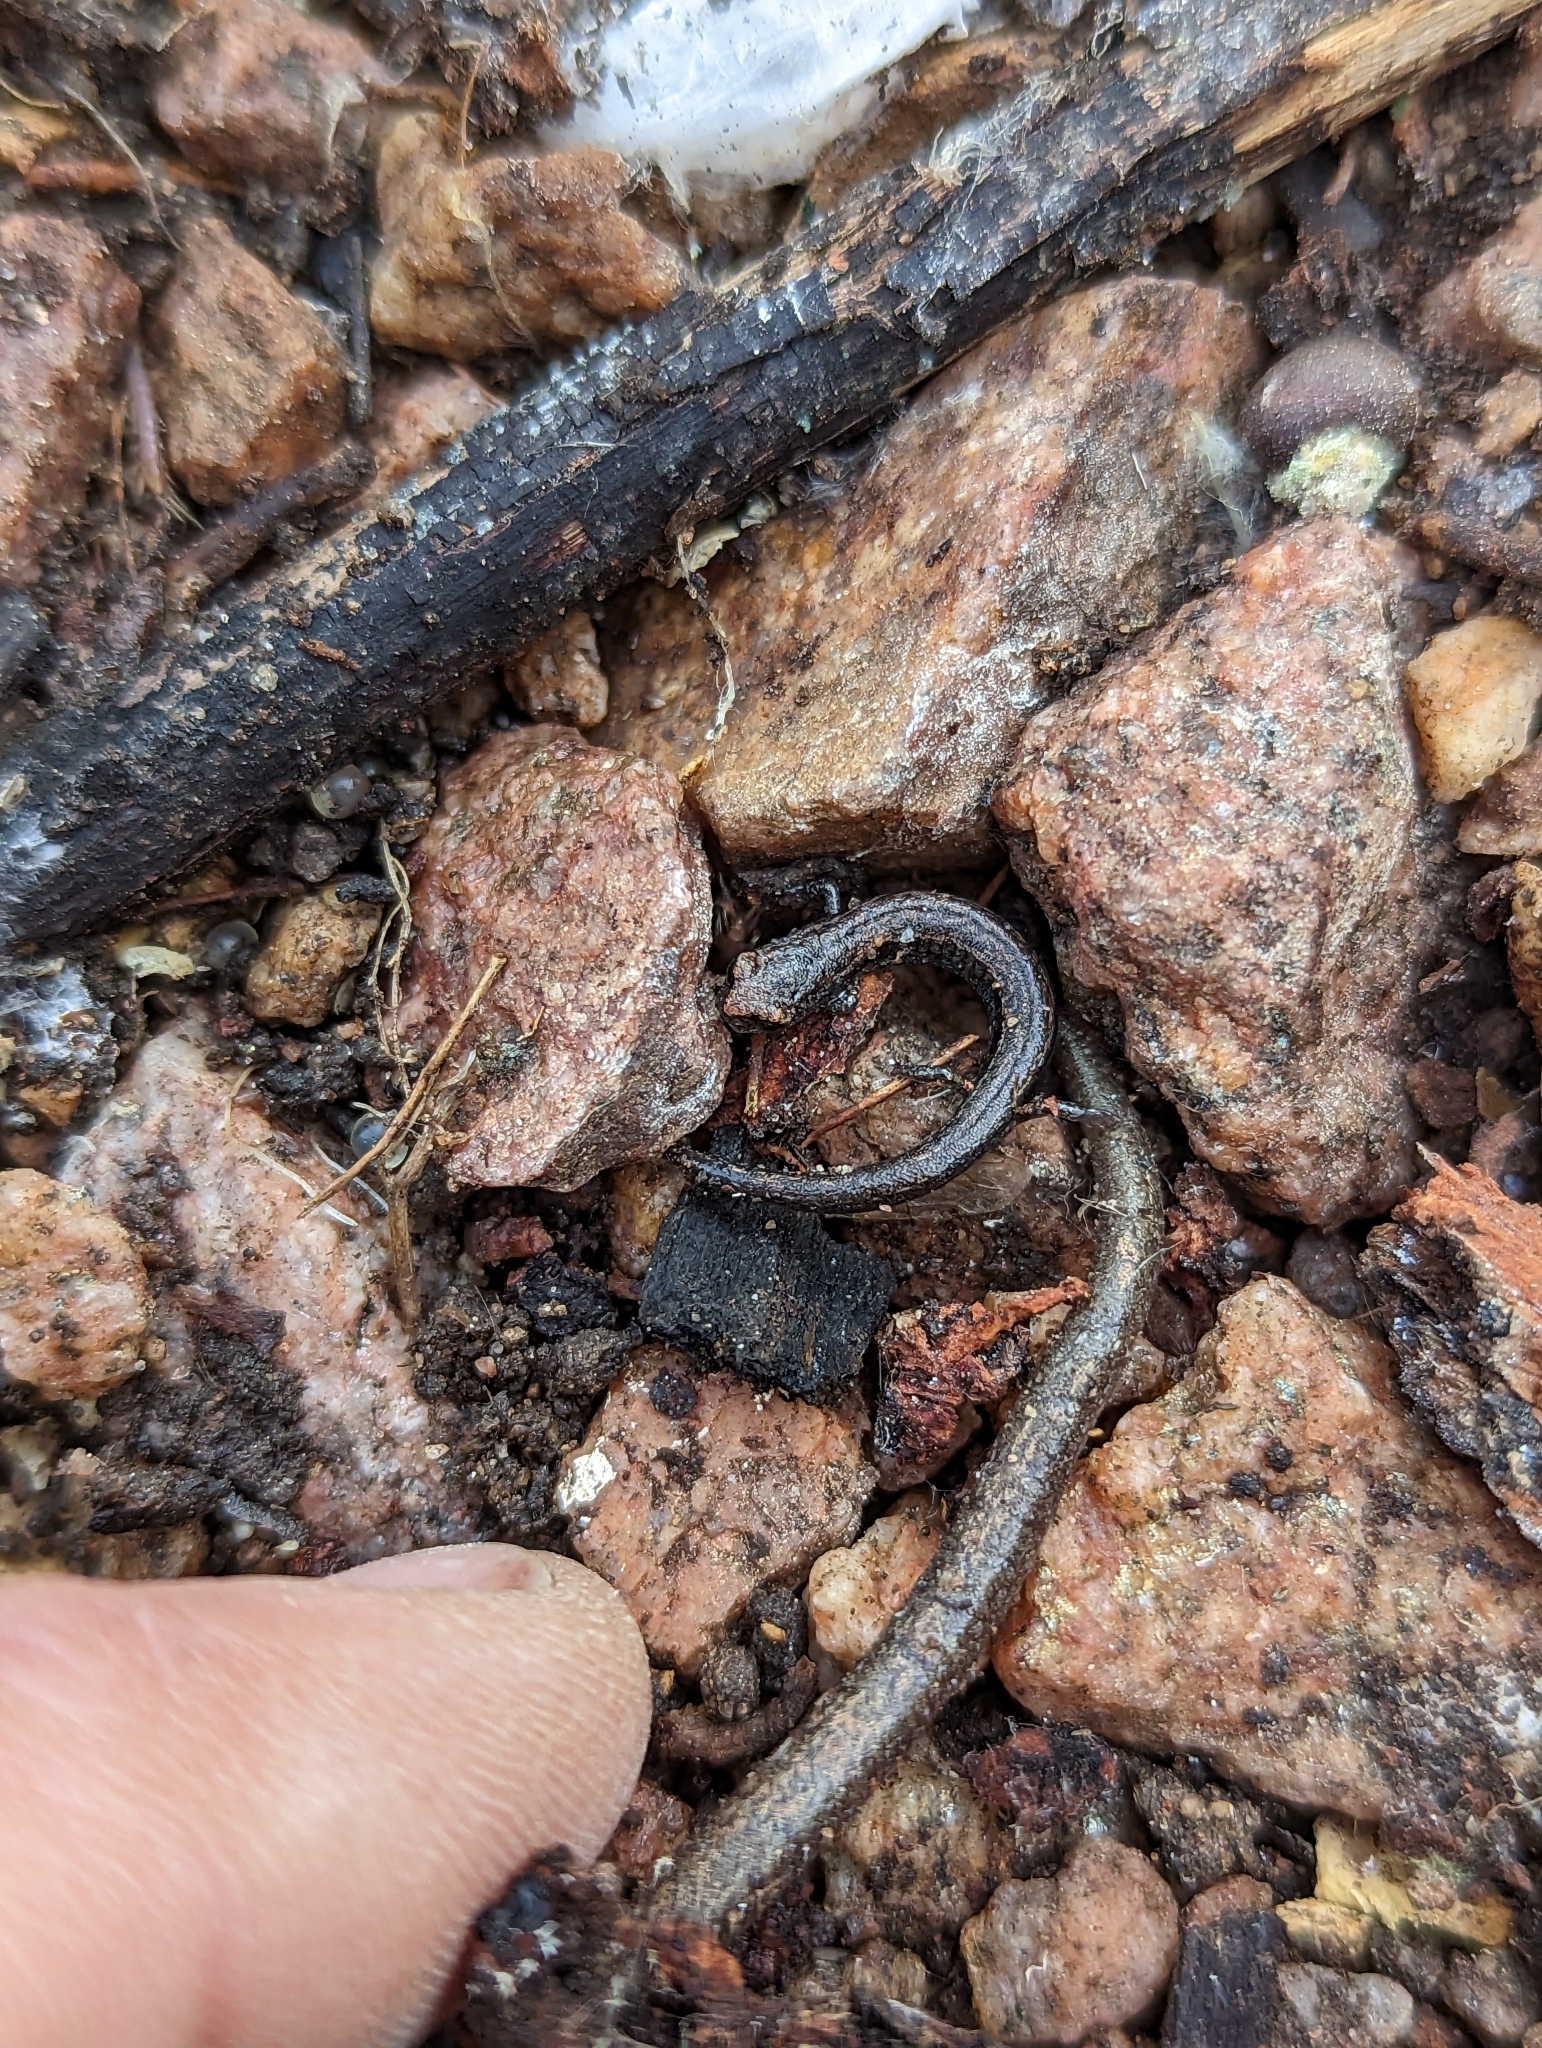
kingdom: Animalia
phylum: Chordata
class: Amphibia
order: Caudata
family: Plethodontidae
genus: Batrachoseps
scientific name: Batrachoseps major
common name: Garden slender salamander
